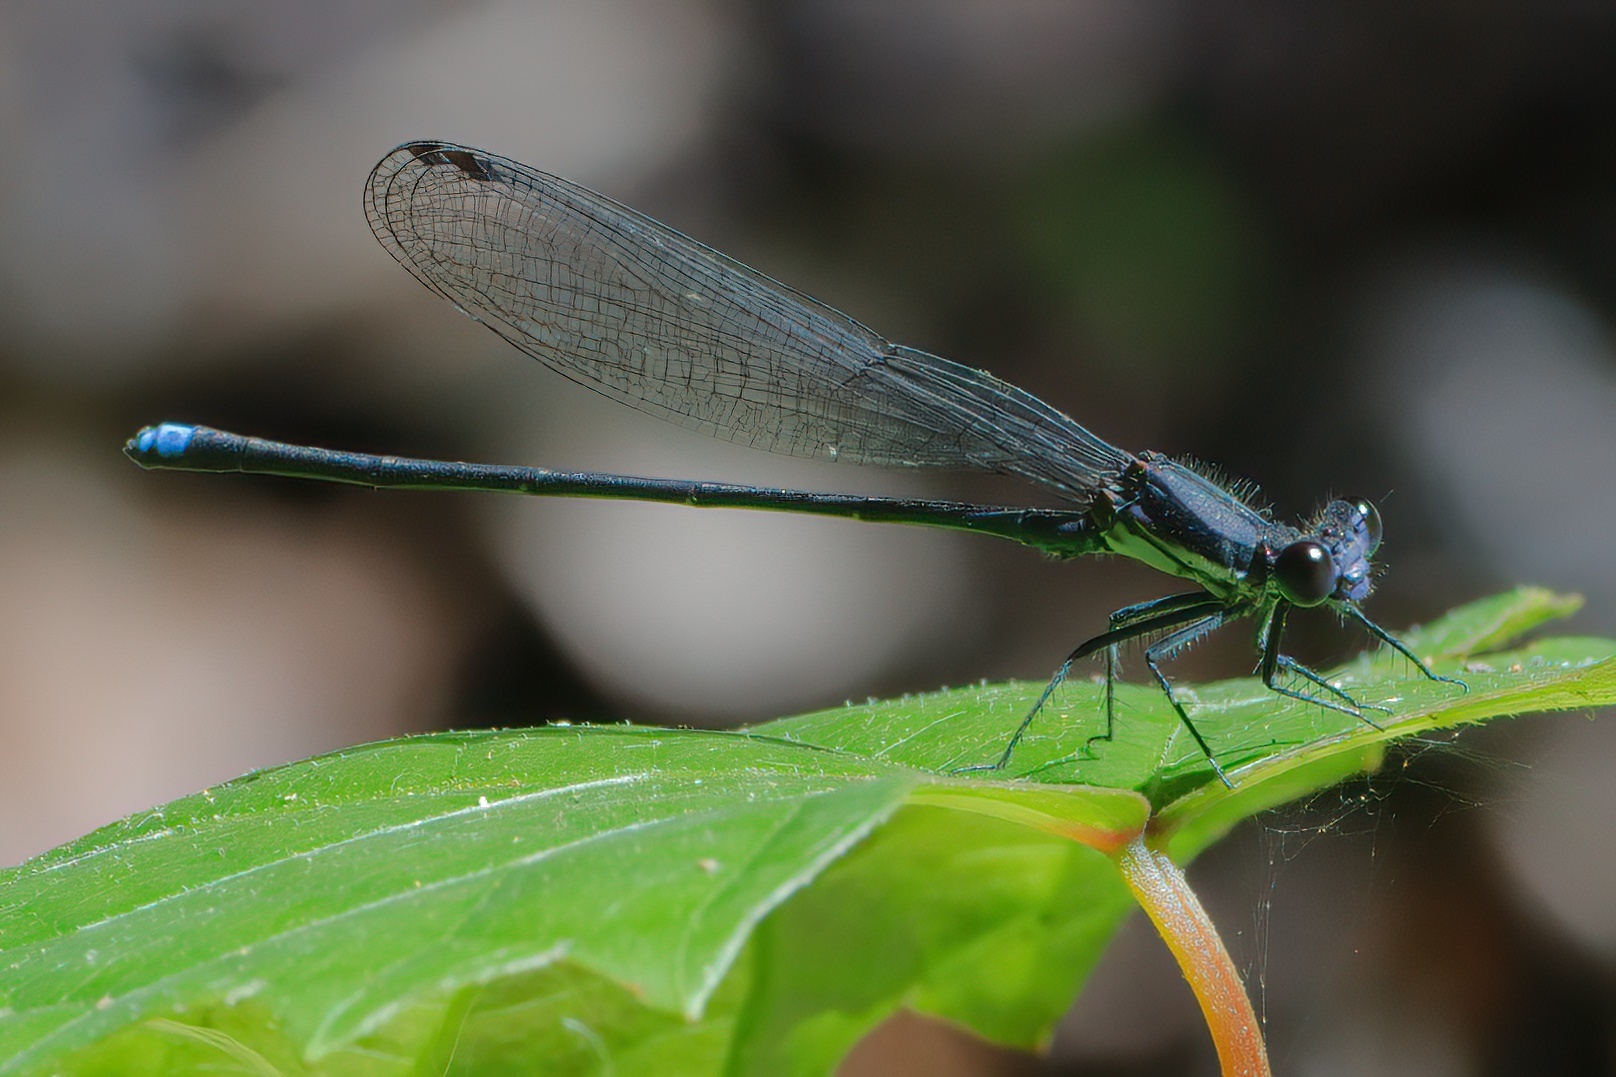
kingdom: Animalia
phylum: Arthropoda
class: Insecta
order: Odonata
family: Coenagrionidae
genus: Argia
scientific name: Argia tibialis
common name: Blue-tipped dancer
